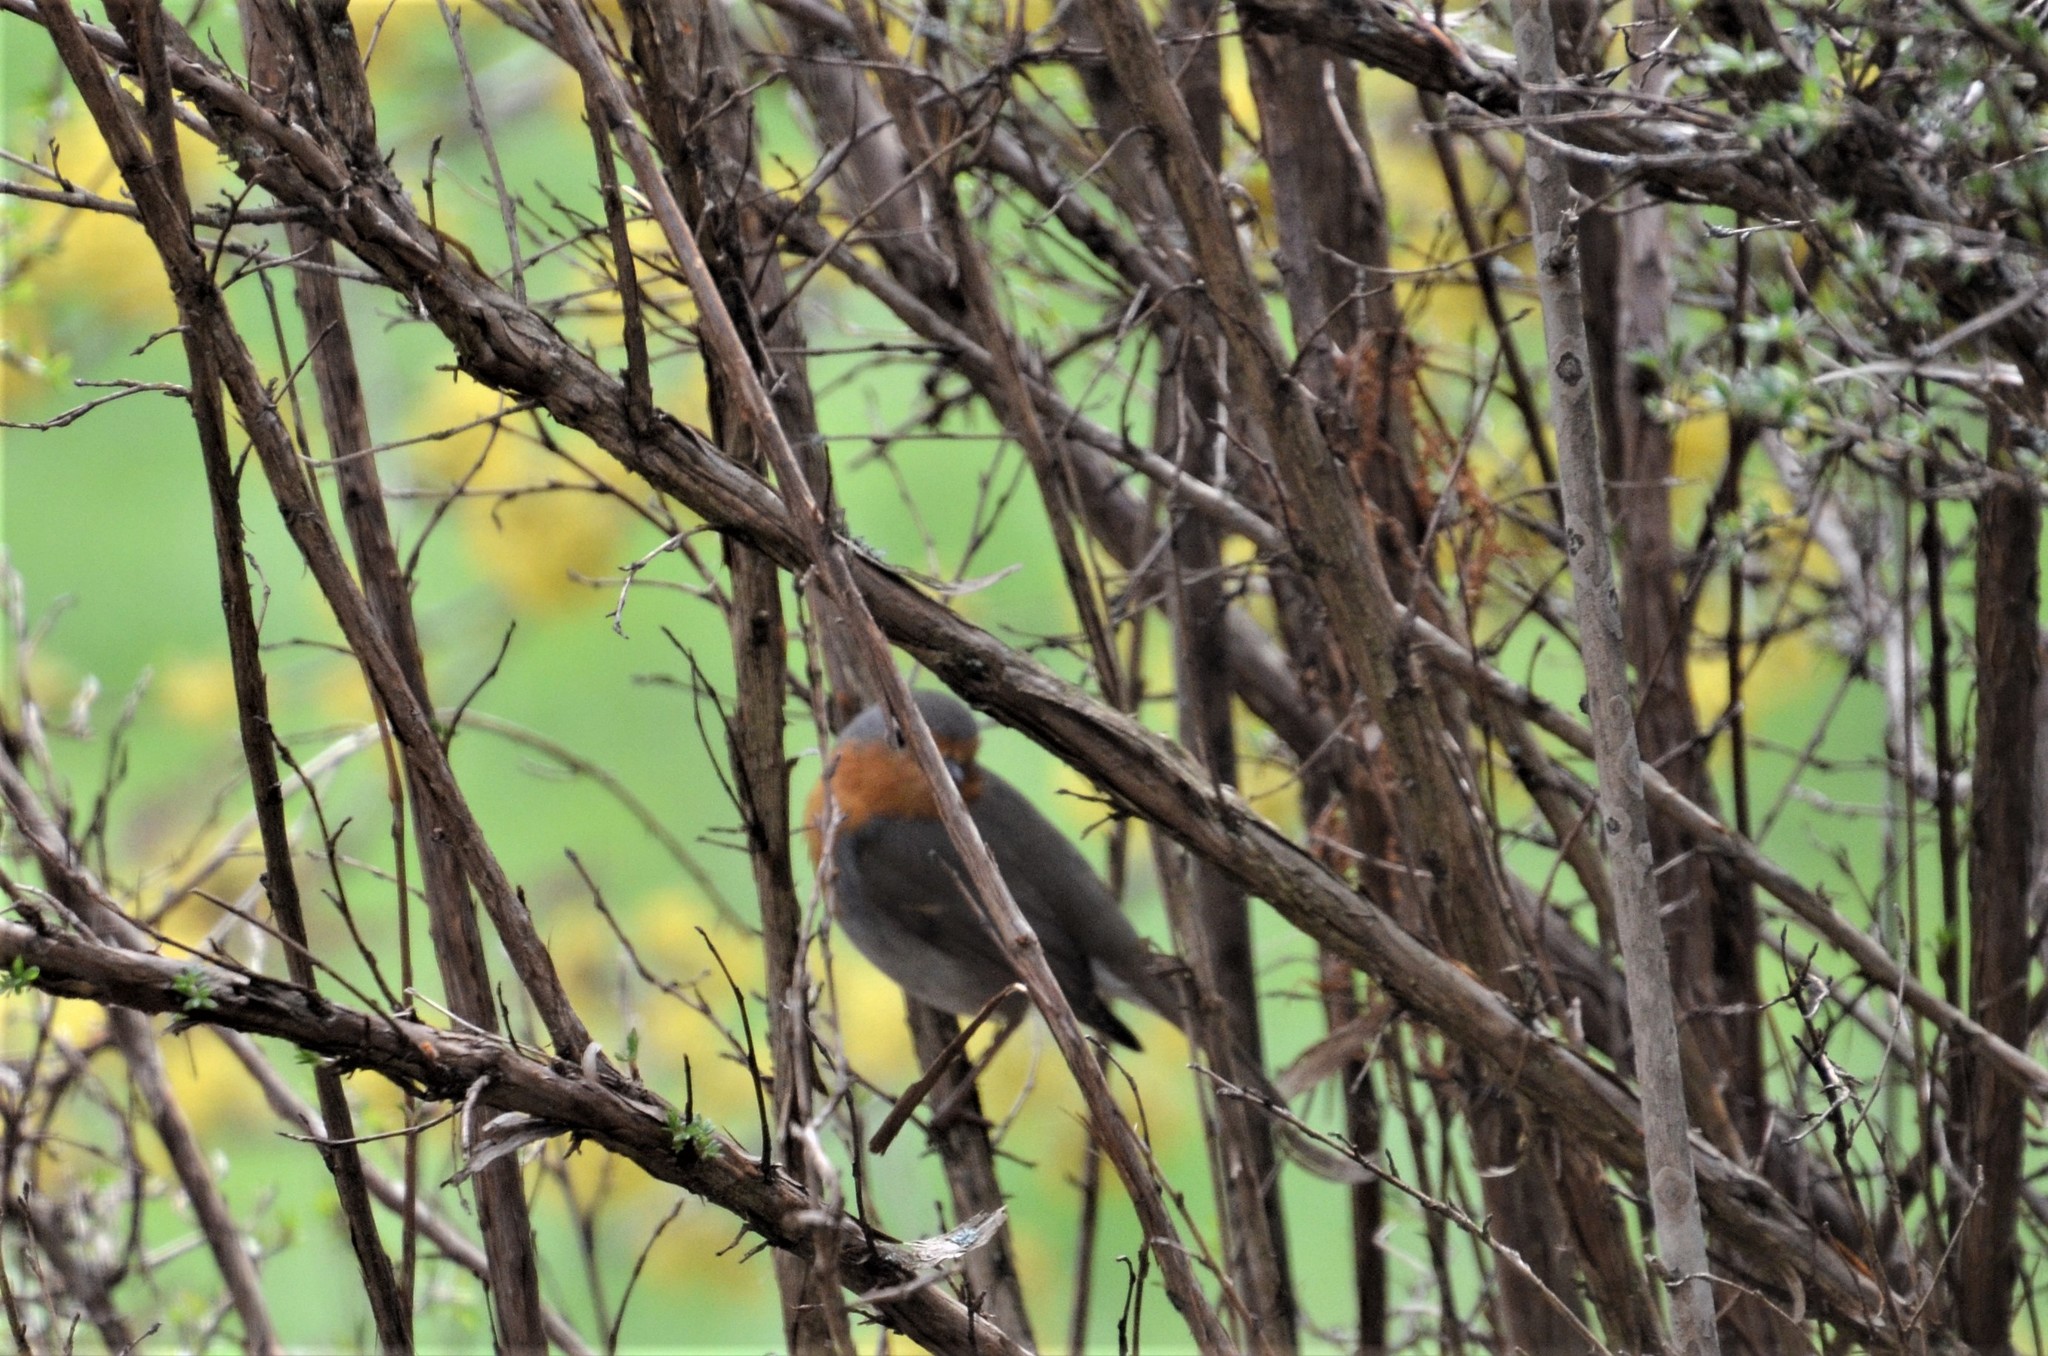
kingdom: Animalia
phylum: Chordata
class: Aves
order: Passeriformes
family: Muscicapidae
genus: Erithacus
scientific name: Erithacus rubecula
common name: European robin
